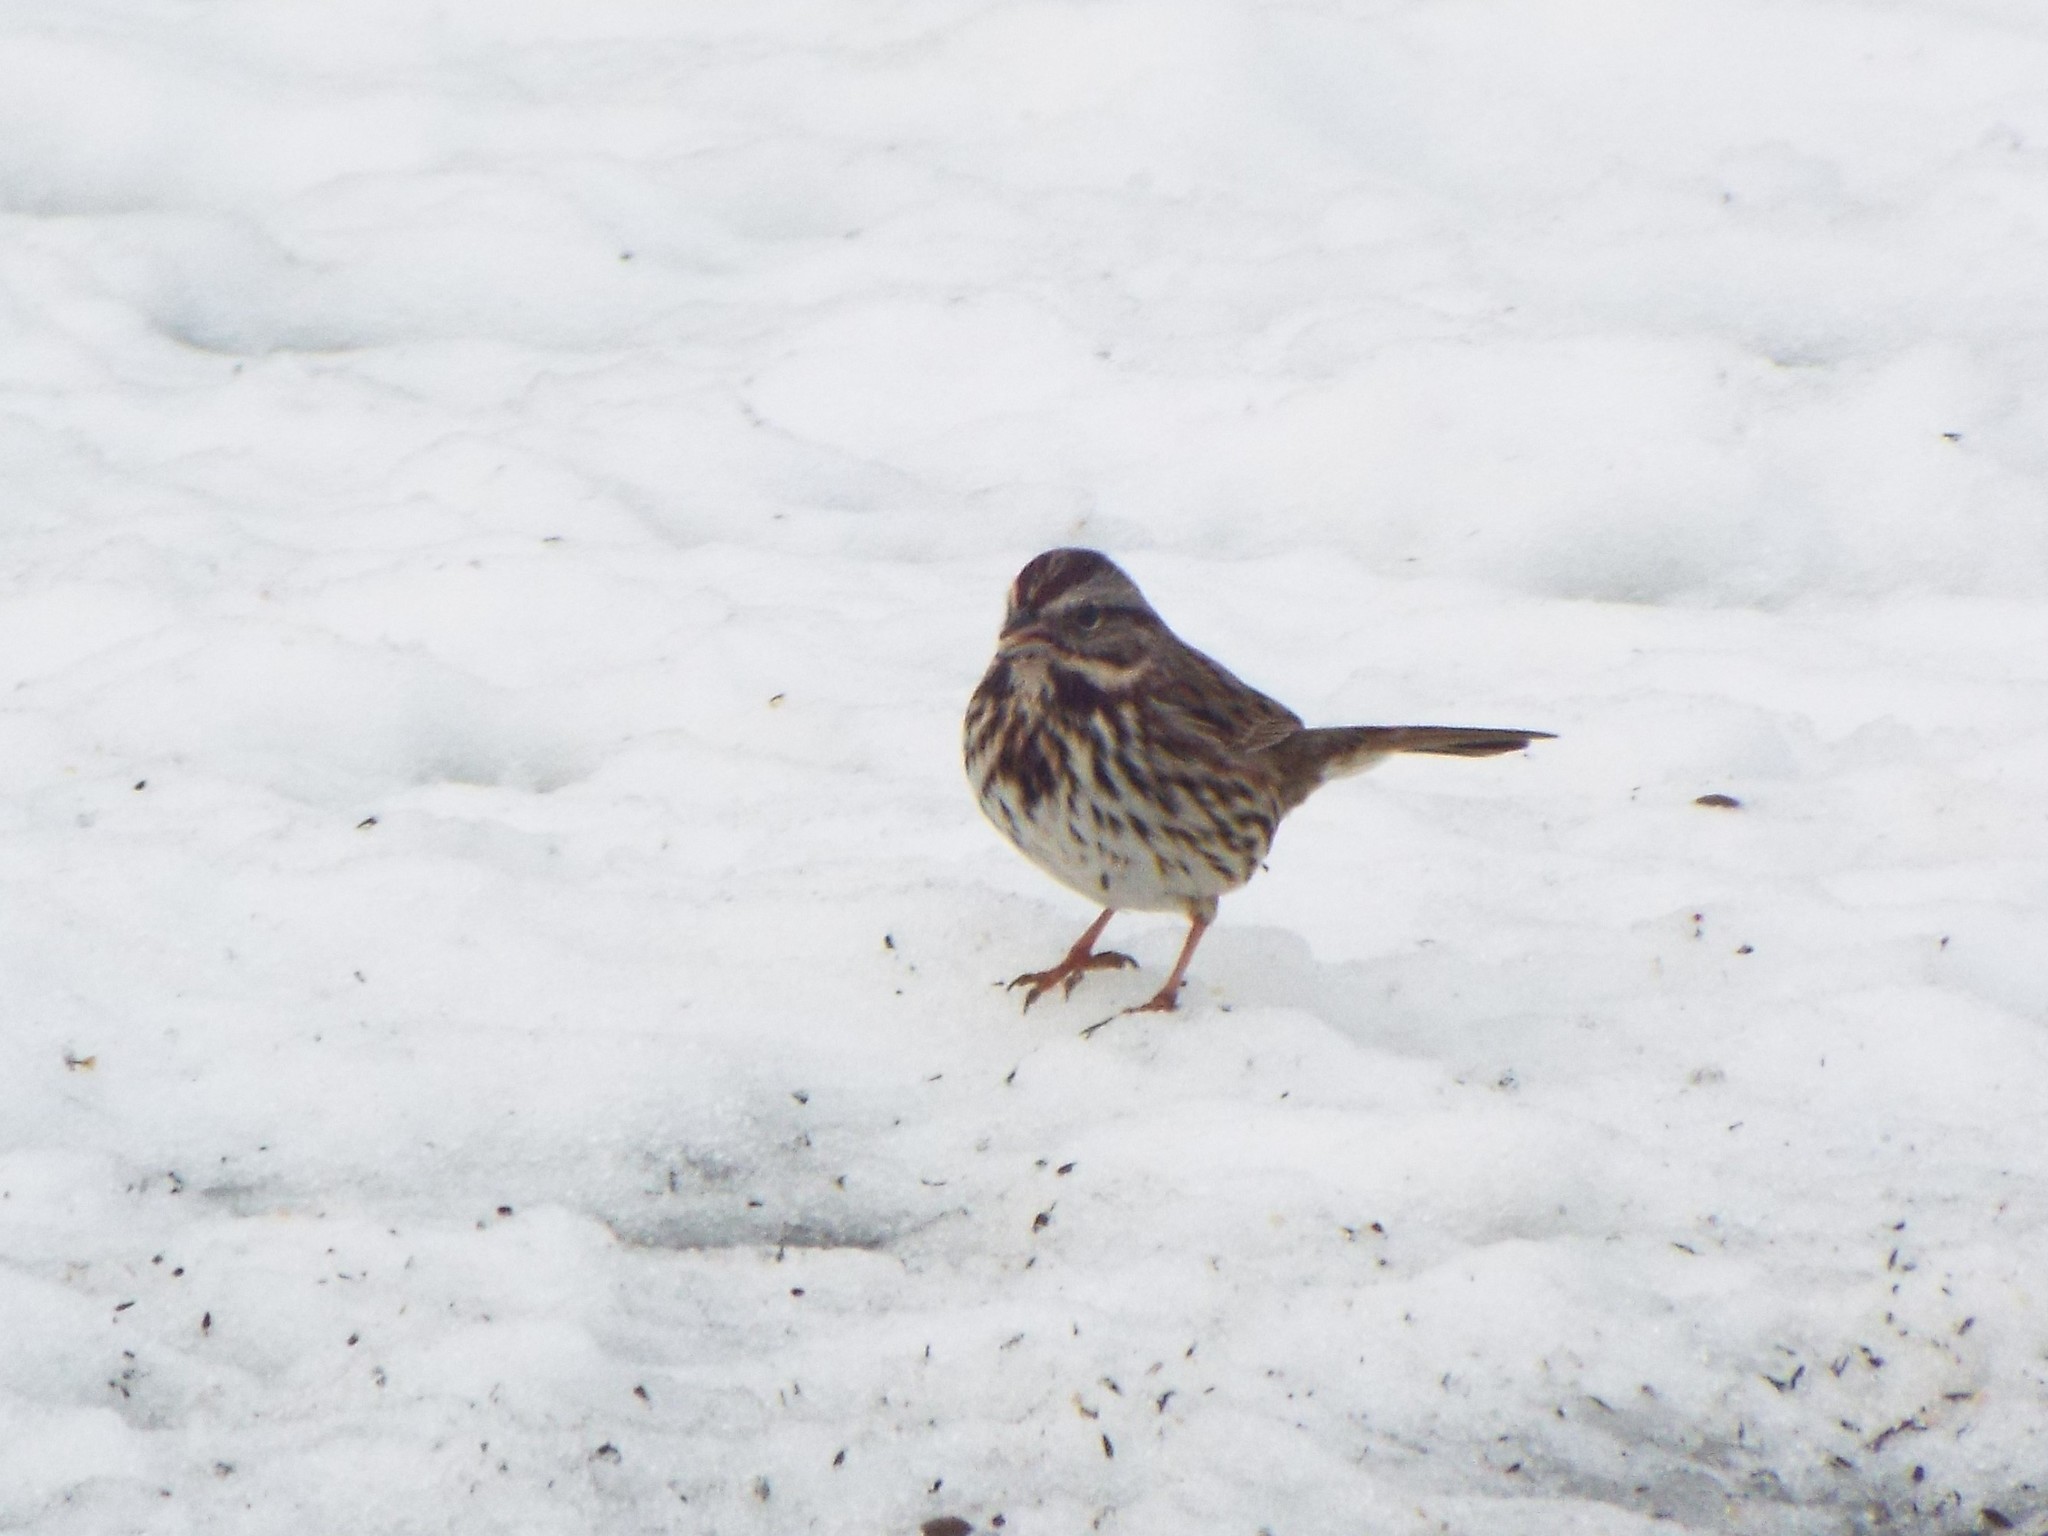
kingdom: Animalia
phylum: Chordata
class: Aves
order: Passeriformes
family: Passerellidae
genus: Melospiza
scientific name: Melospiza melodia
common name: Song sparrow
